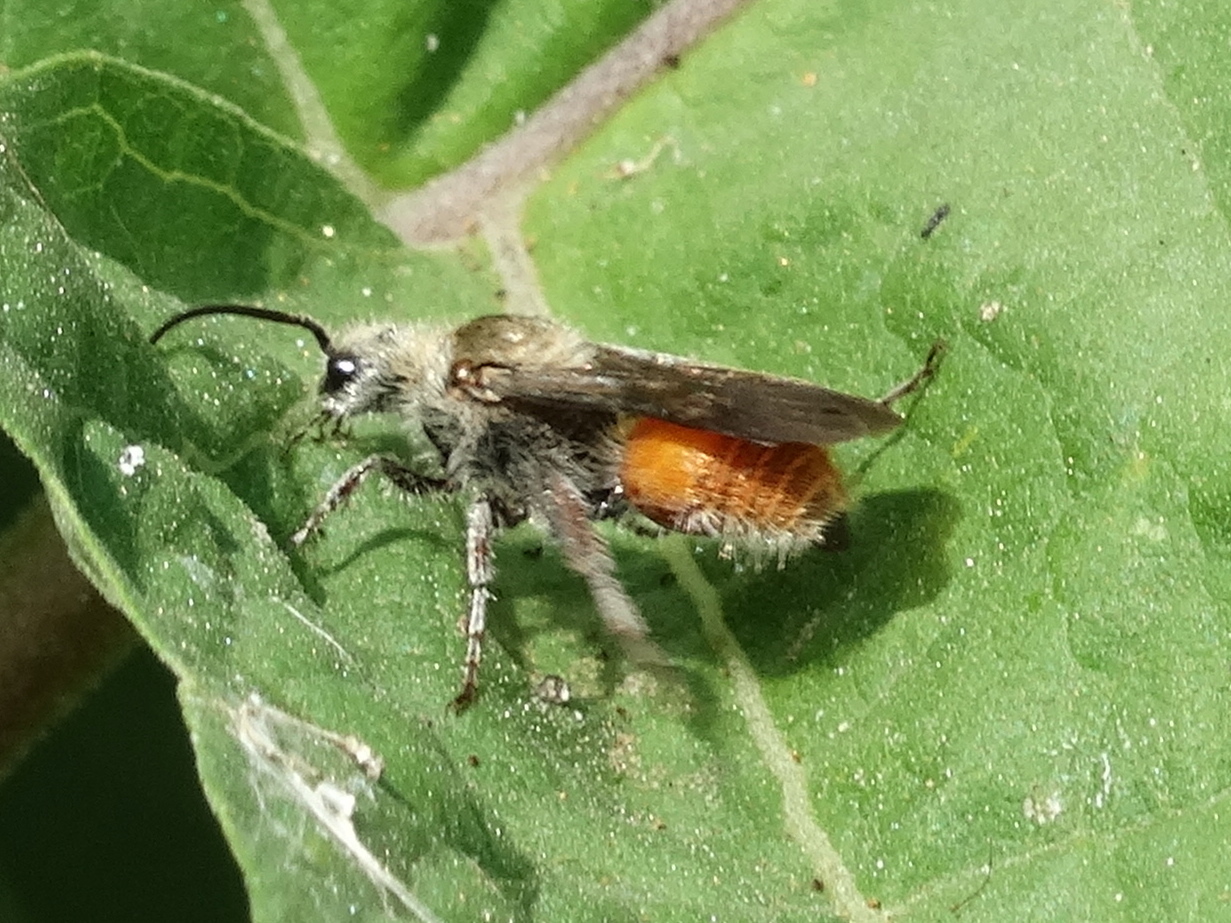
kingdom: Animalia
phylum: Arthropoda
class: Insecta
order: Hymenoptera
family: Mutillidae
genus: Dasymutilla
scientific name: Dasymutilla foxi
